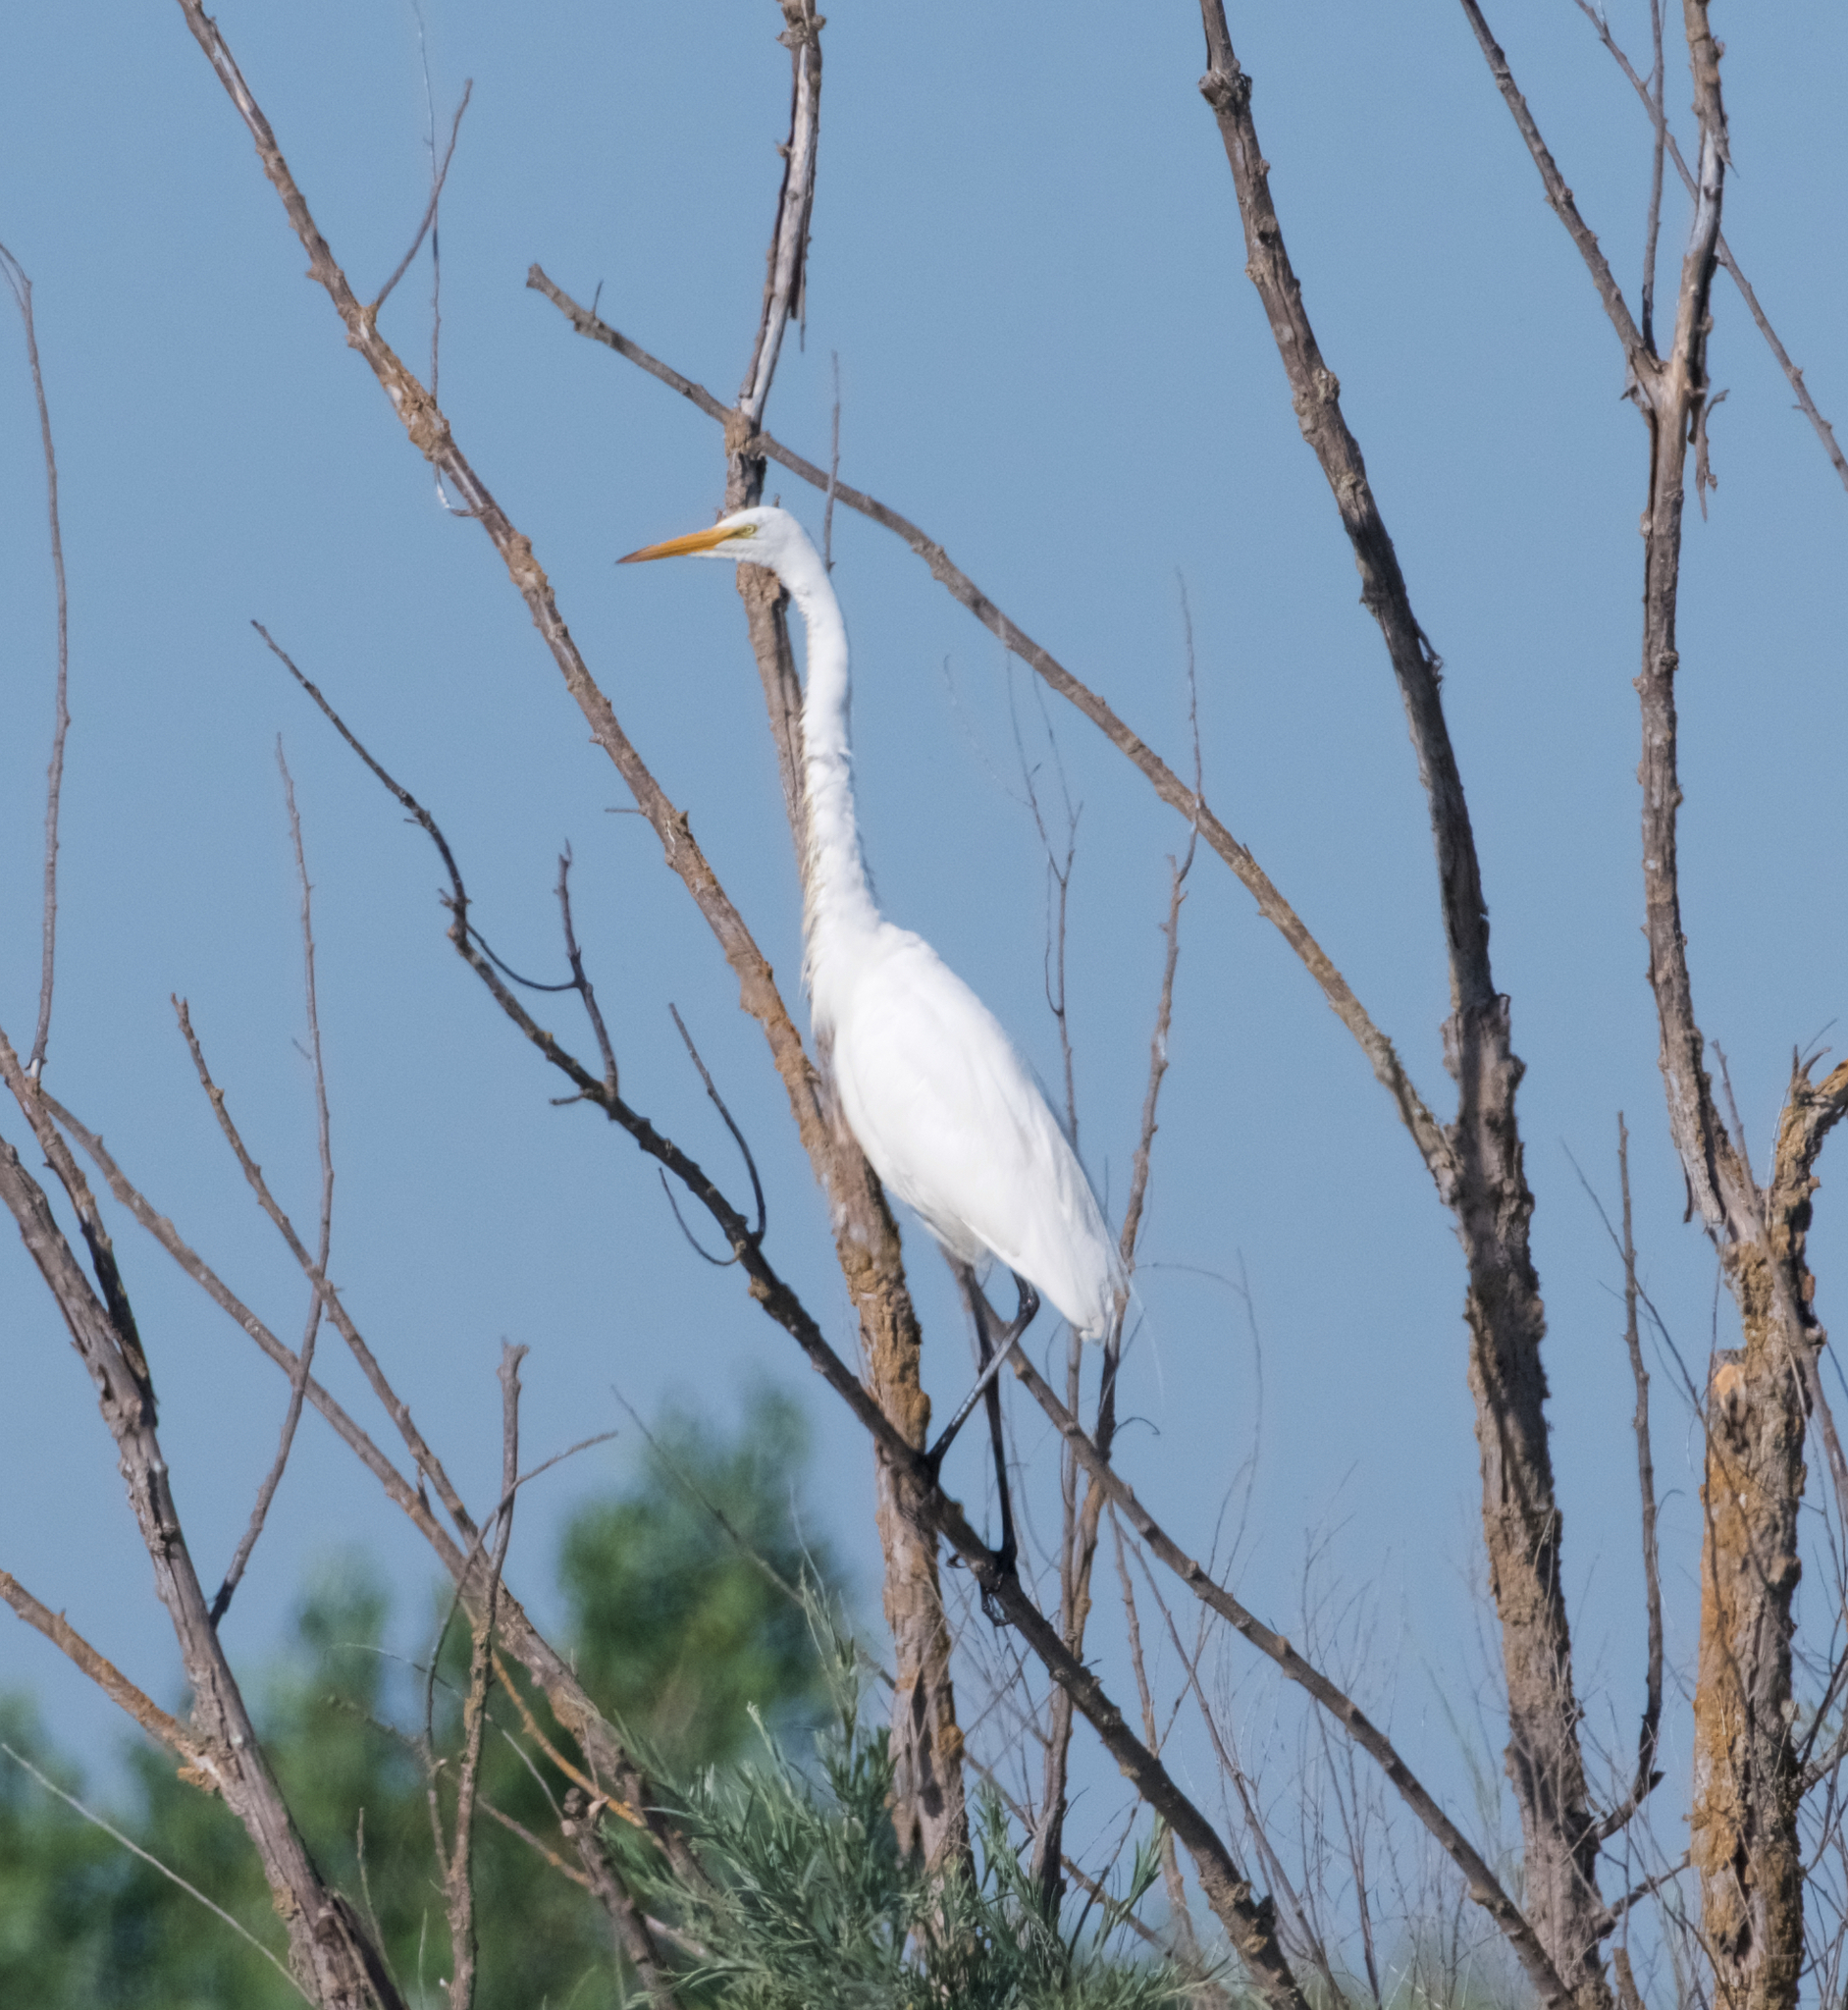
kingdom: Animalia
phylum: Chordata
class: Aves
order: Pelecaniformes
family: Ardeidae
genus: Ardea
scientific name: Ardea alba
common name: Great egret
